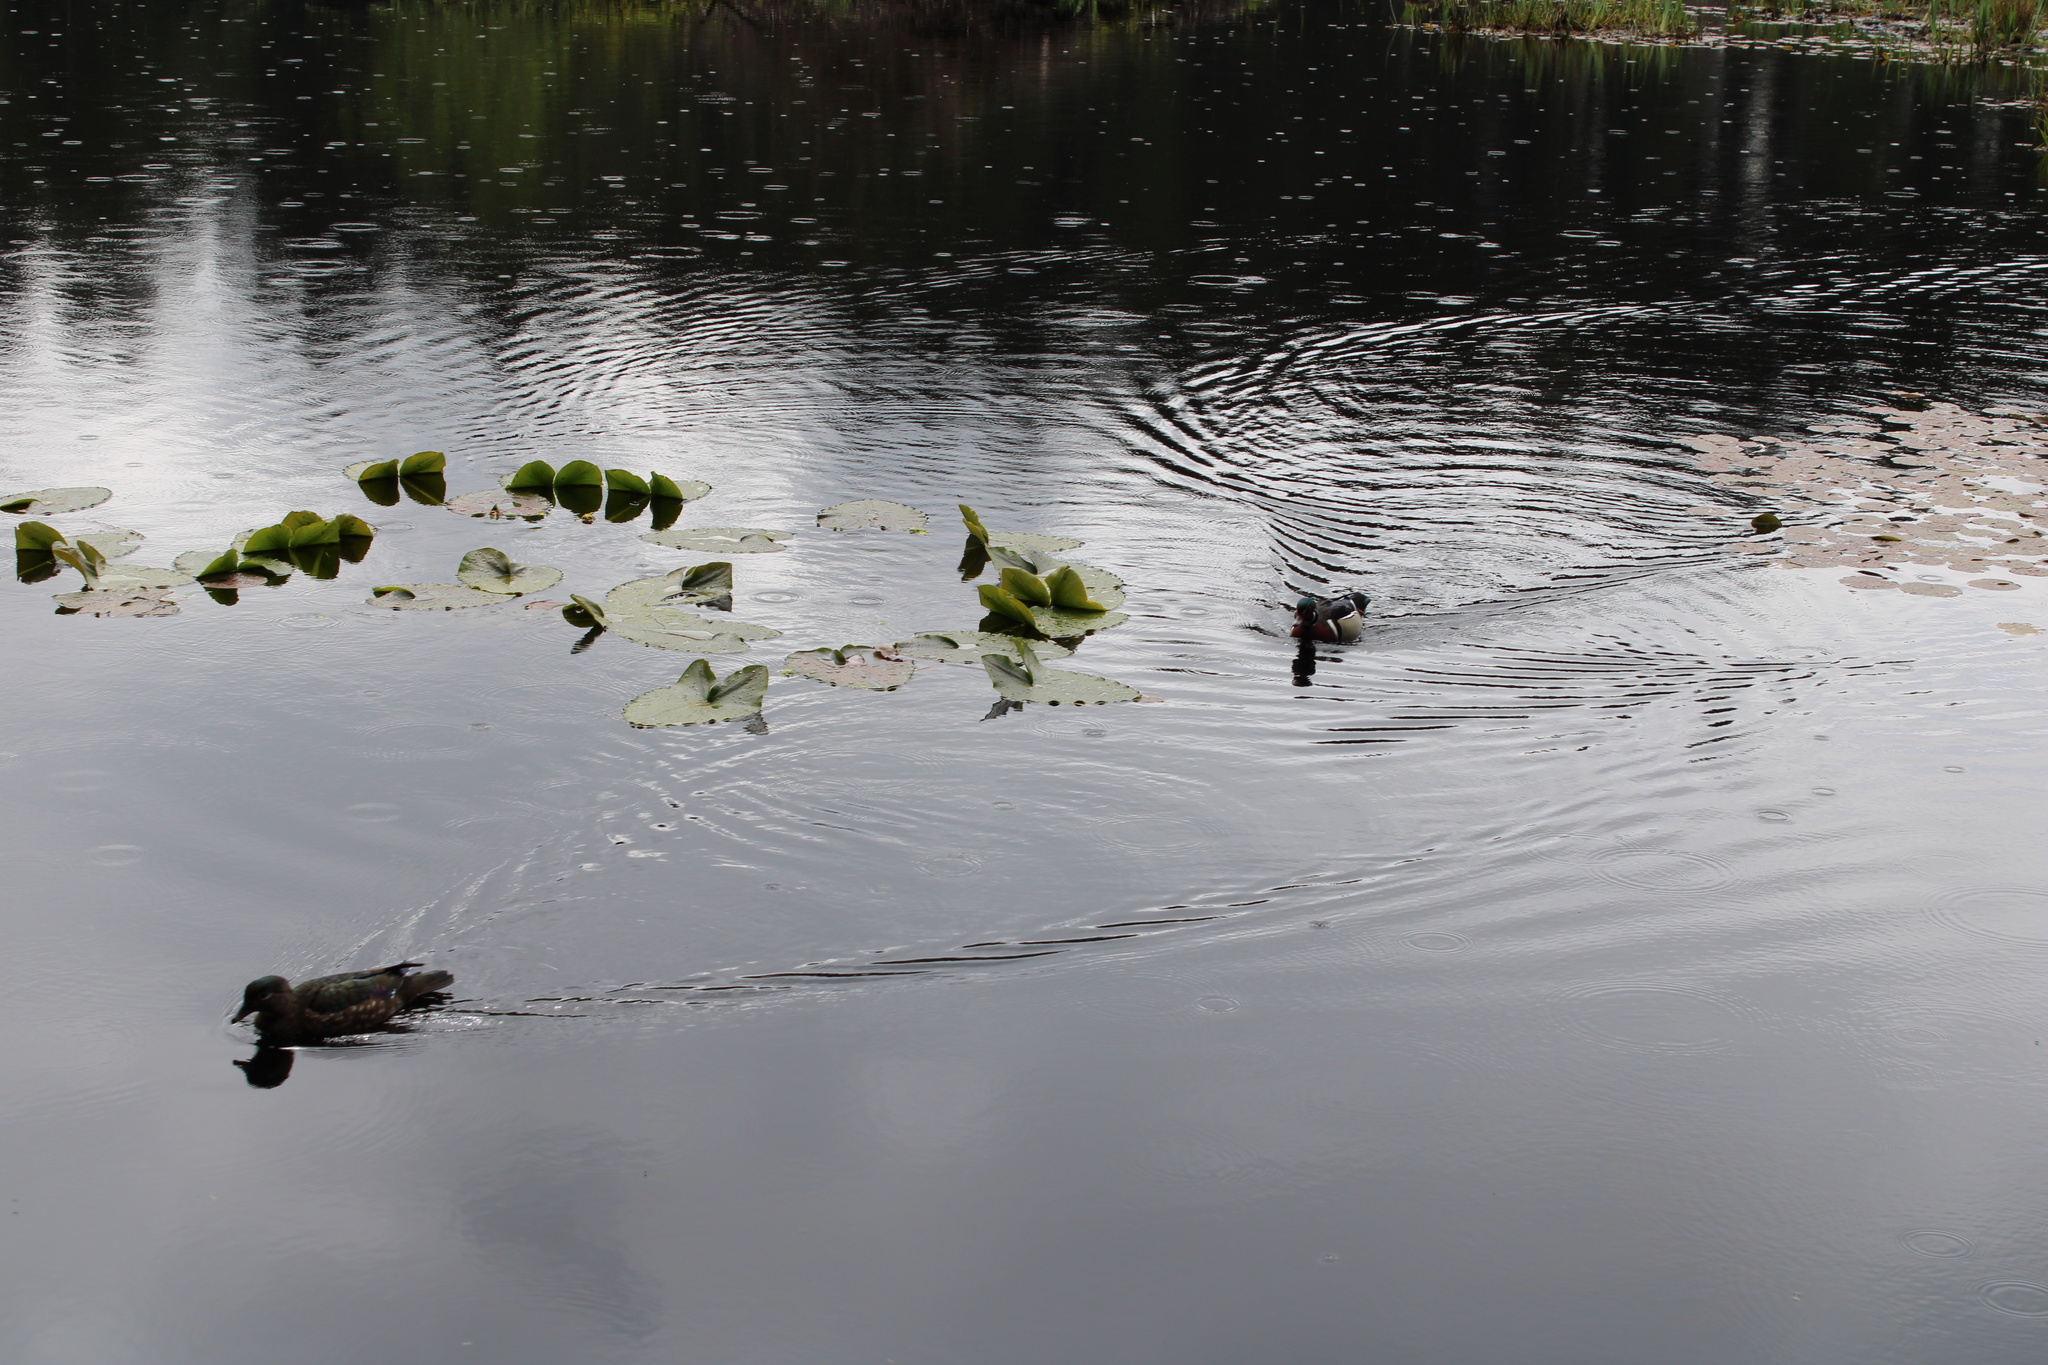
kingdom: Animalia
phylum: Chordata
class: Aves
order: Anseriformes
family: Anatidae
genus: Aix
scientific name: Aix sponsa
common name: Wood duck
